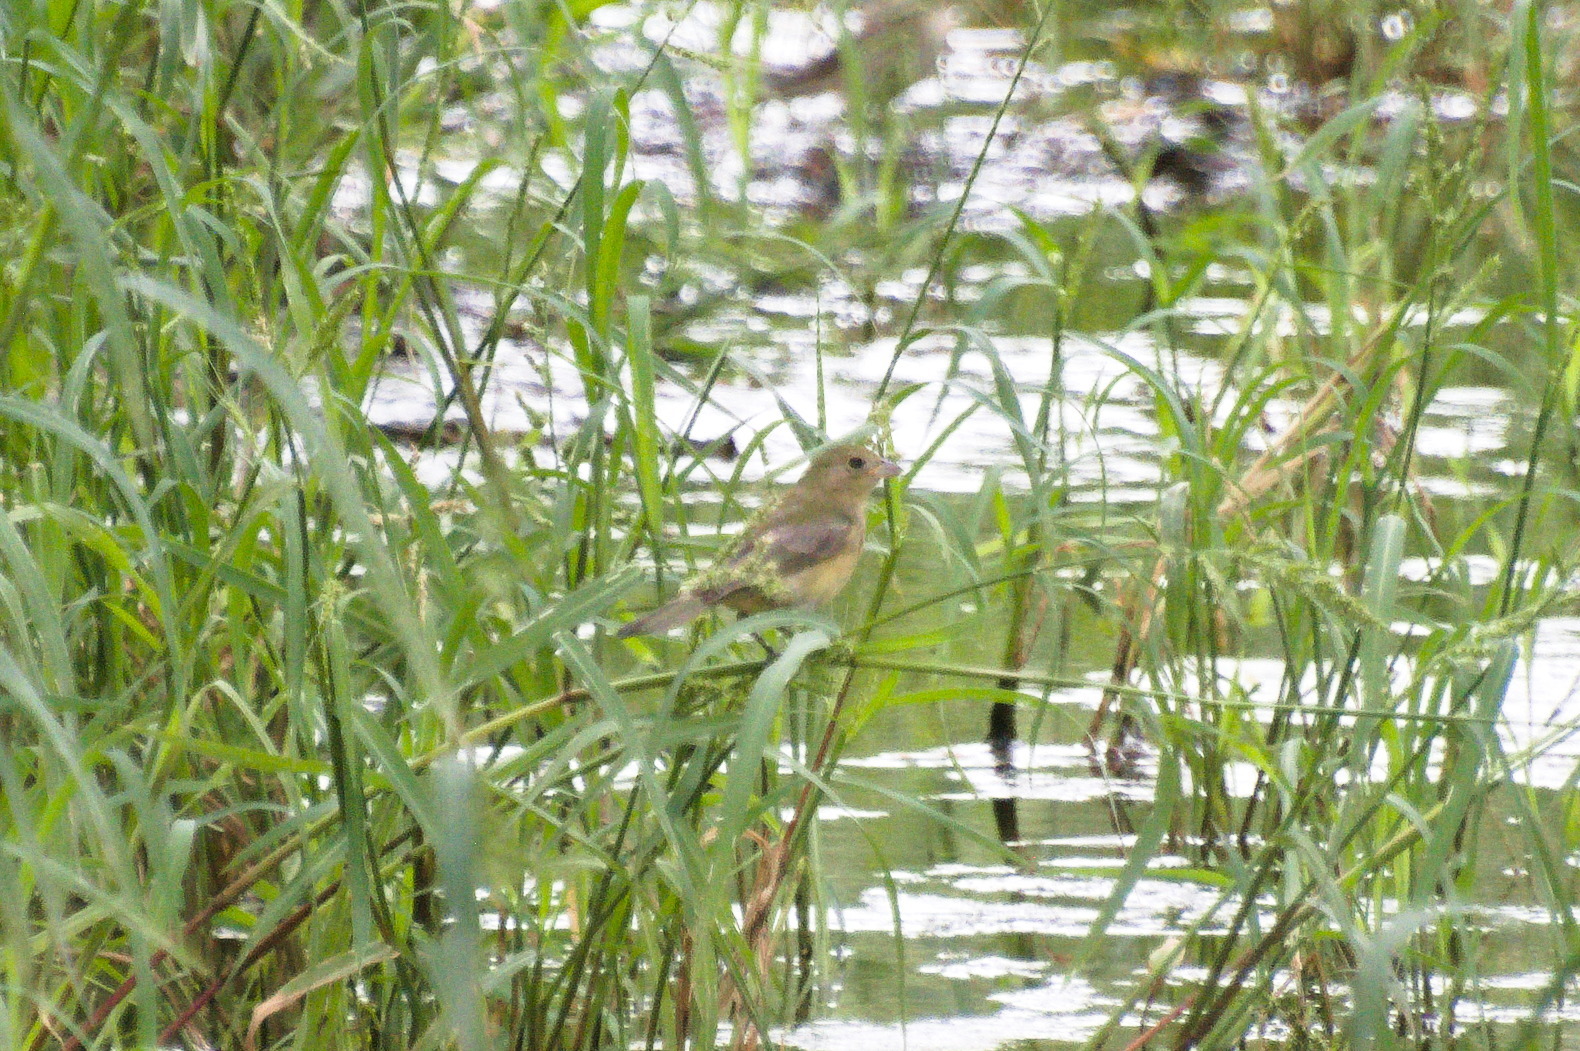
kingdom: Animalia
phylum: Chordata
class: Aves
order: Passeriformes
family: Cardinalidae
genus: Passerina
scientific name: Passerina ciris
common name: Painted bunting
